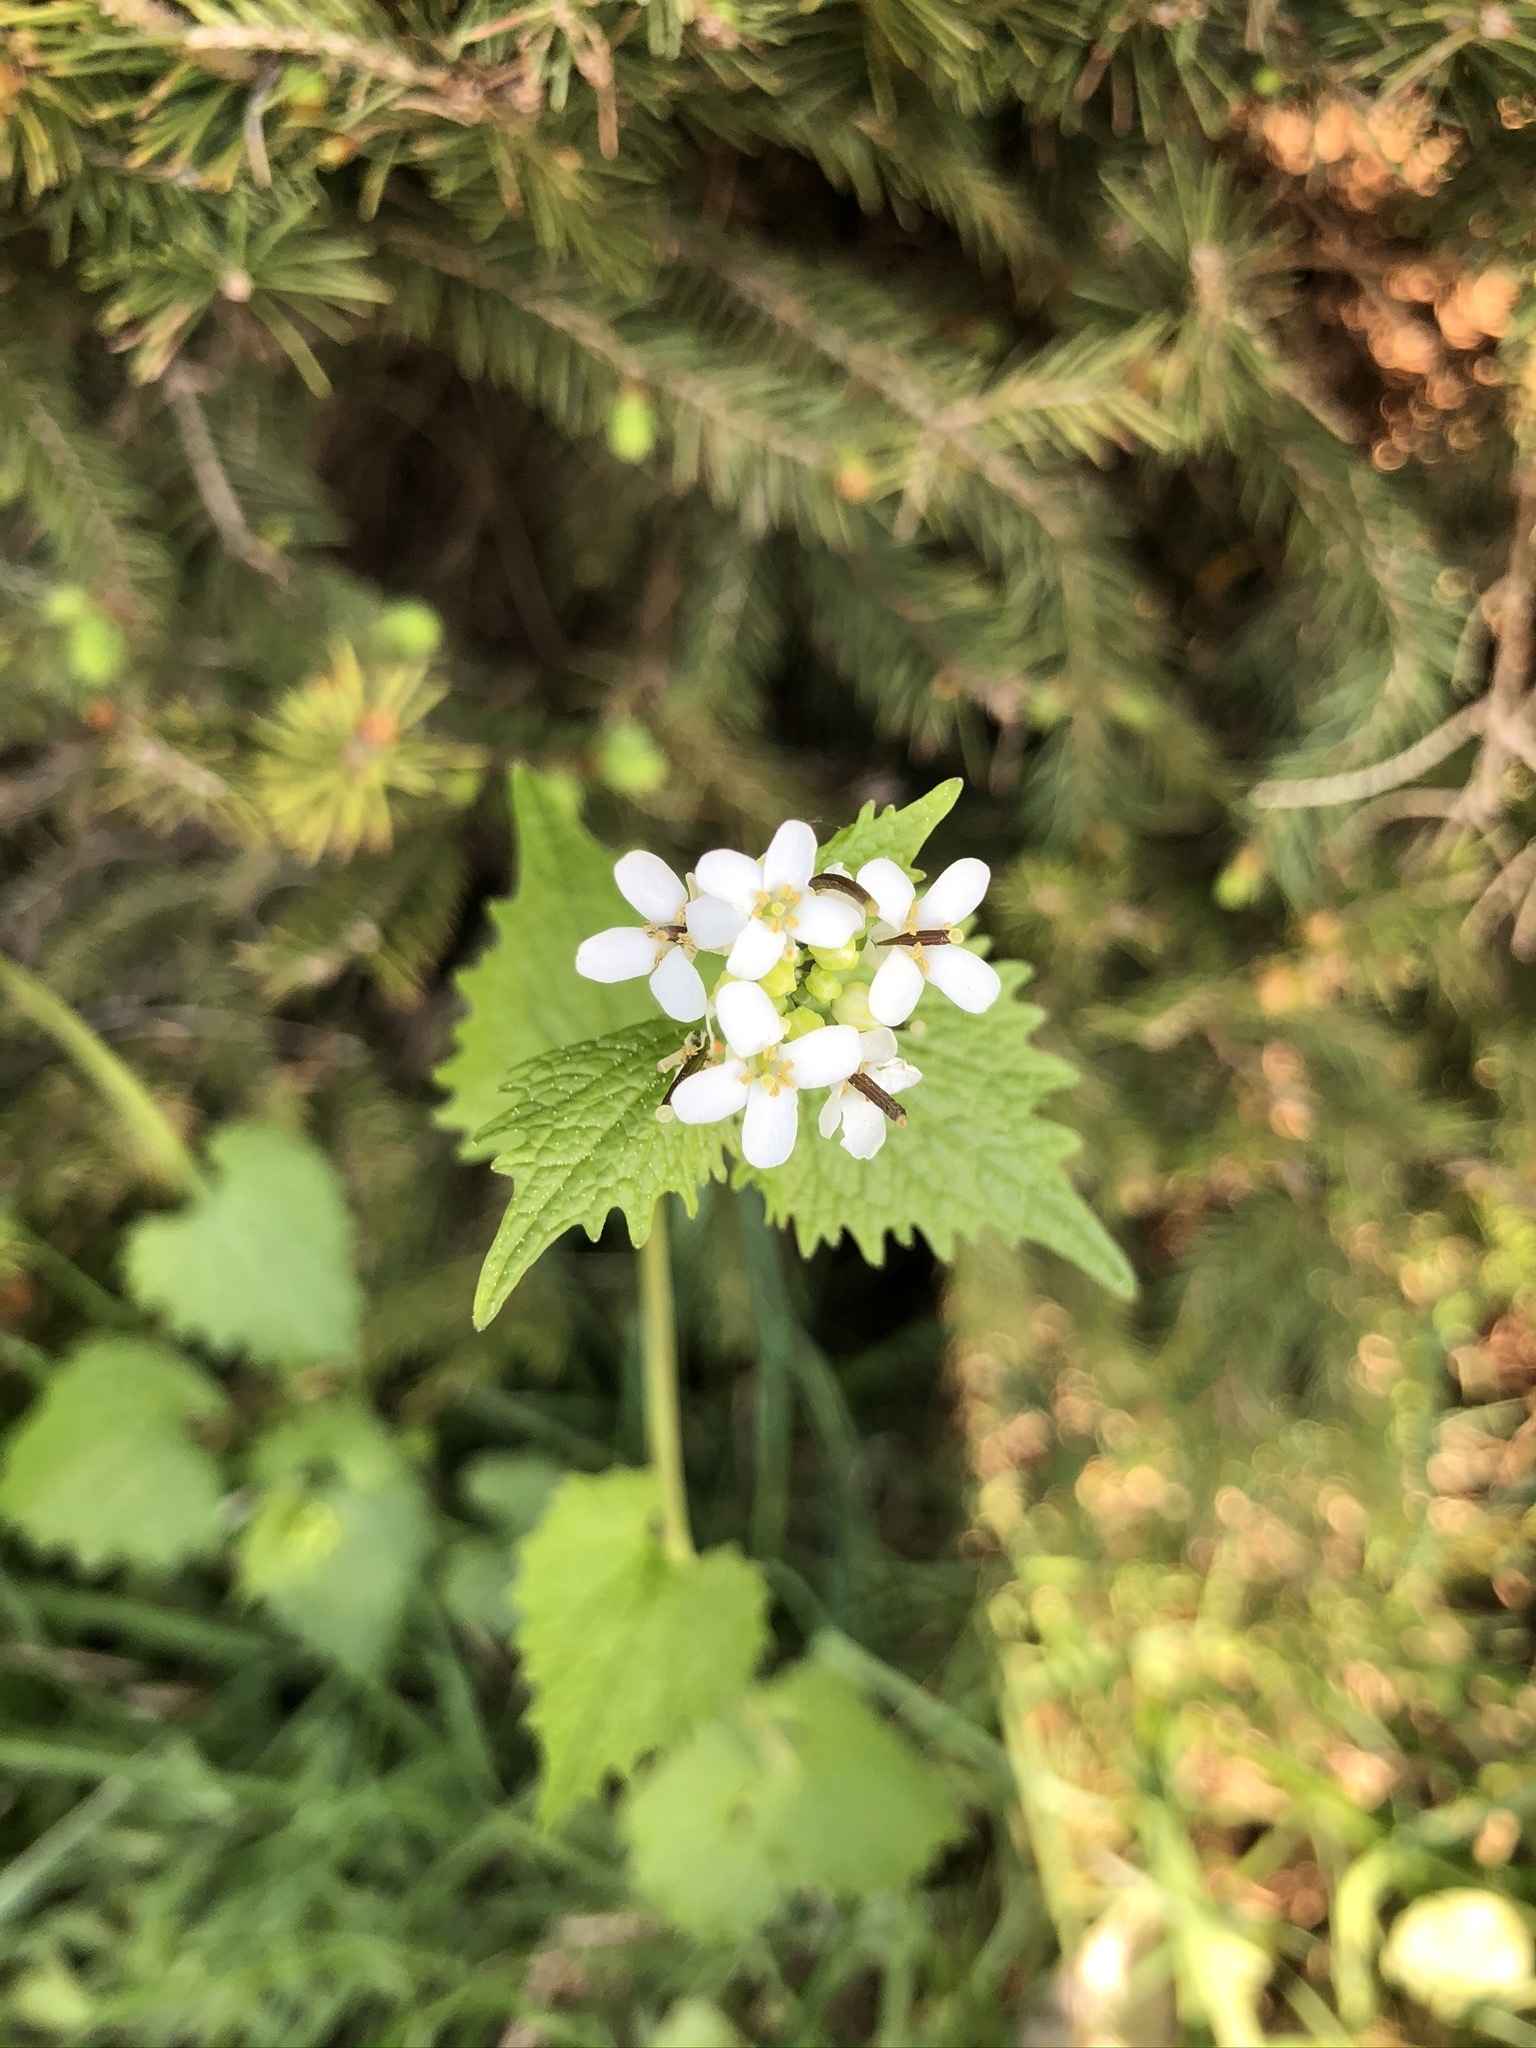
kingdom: Plantae
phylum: Tracheophyta
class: Magnoliopsida
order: Brassicales
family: Brassicaceae
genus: Alliaria
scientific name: Alliaria petiolata
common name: Garlic mustard
